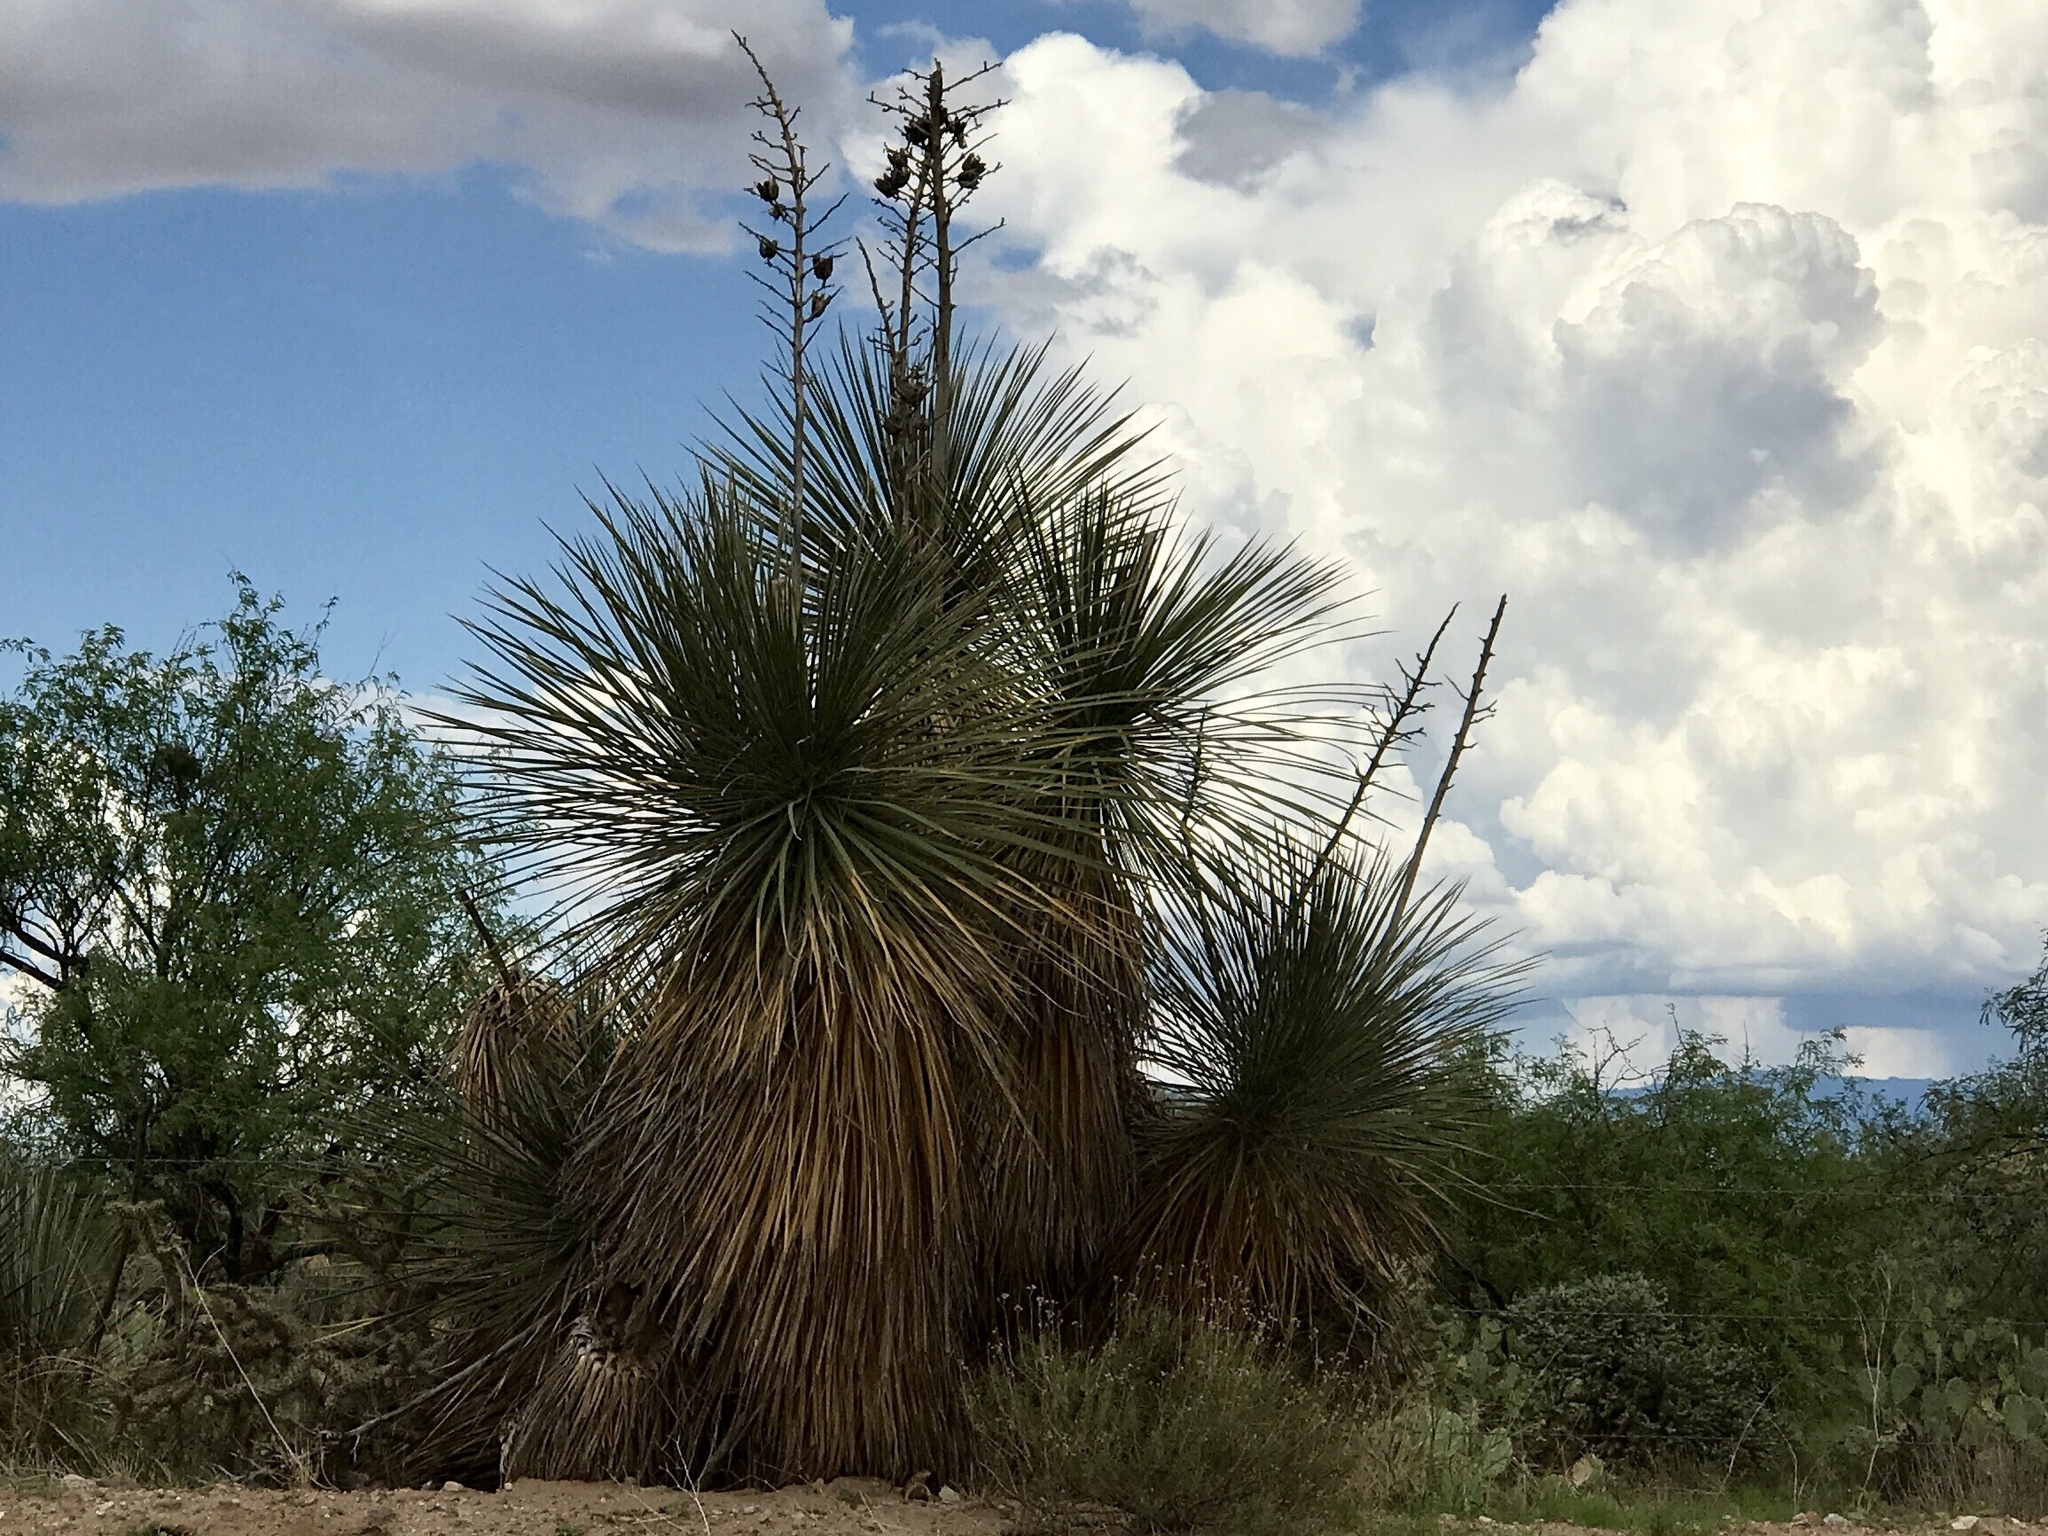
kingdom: Plantae
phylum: Tracheophyta
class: Liliopsida
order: Asparagales
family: Asparagaceae
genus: Yucca
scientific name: Yucca elata
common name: Palmella
